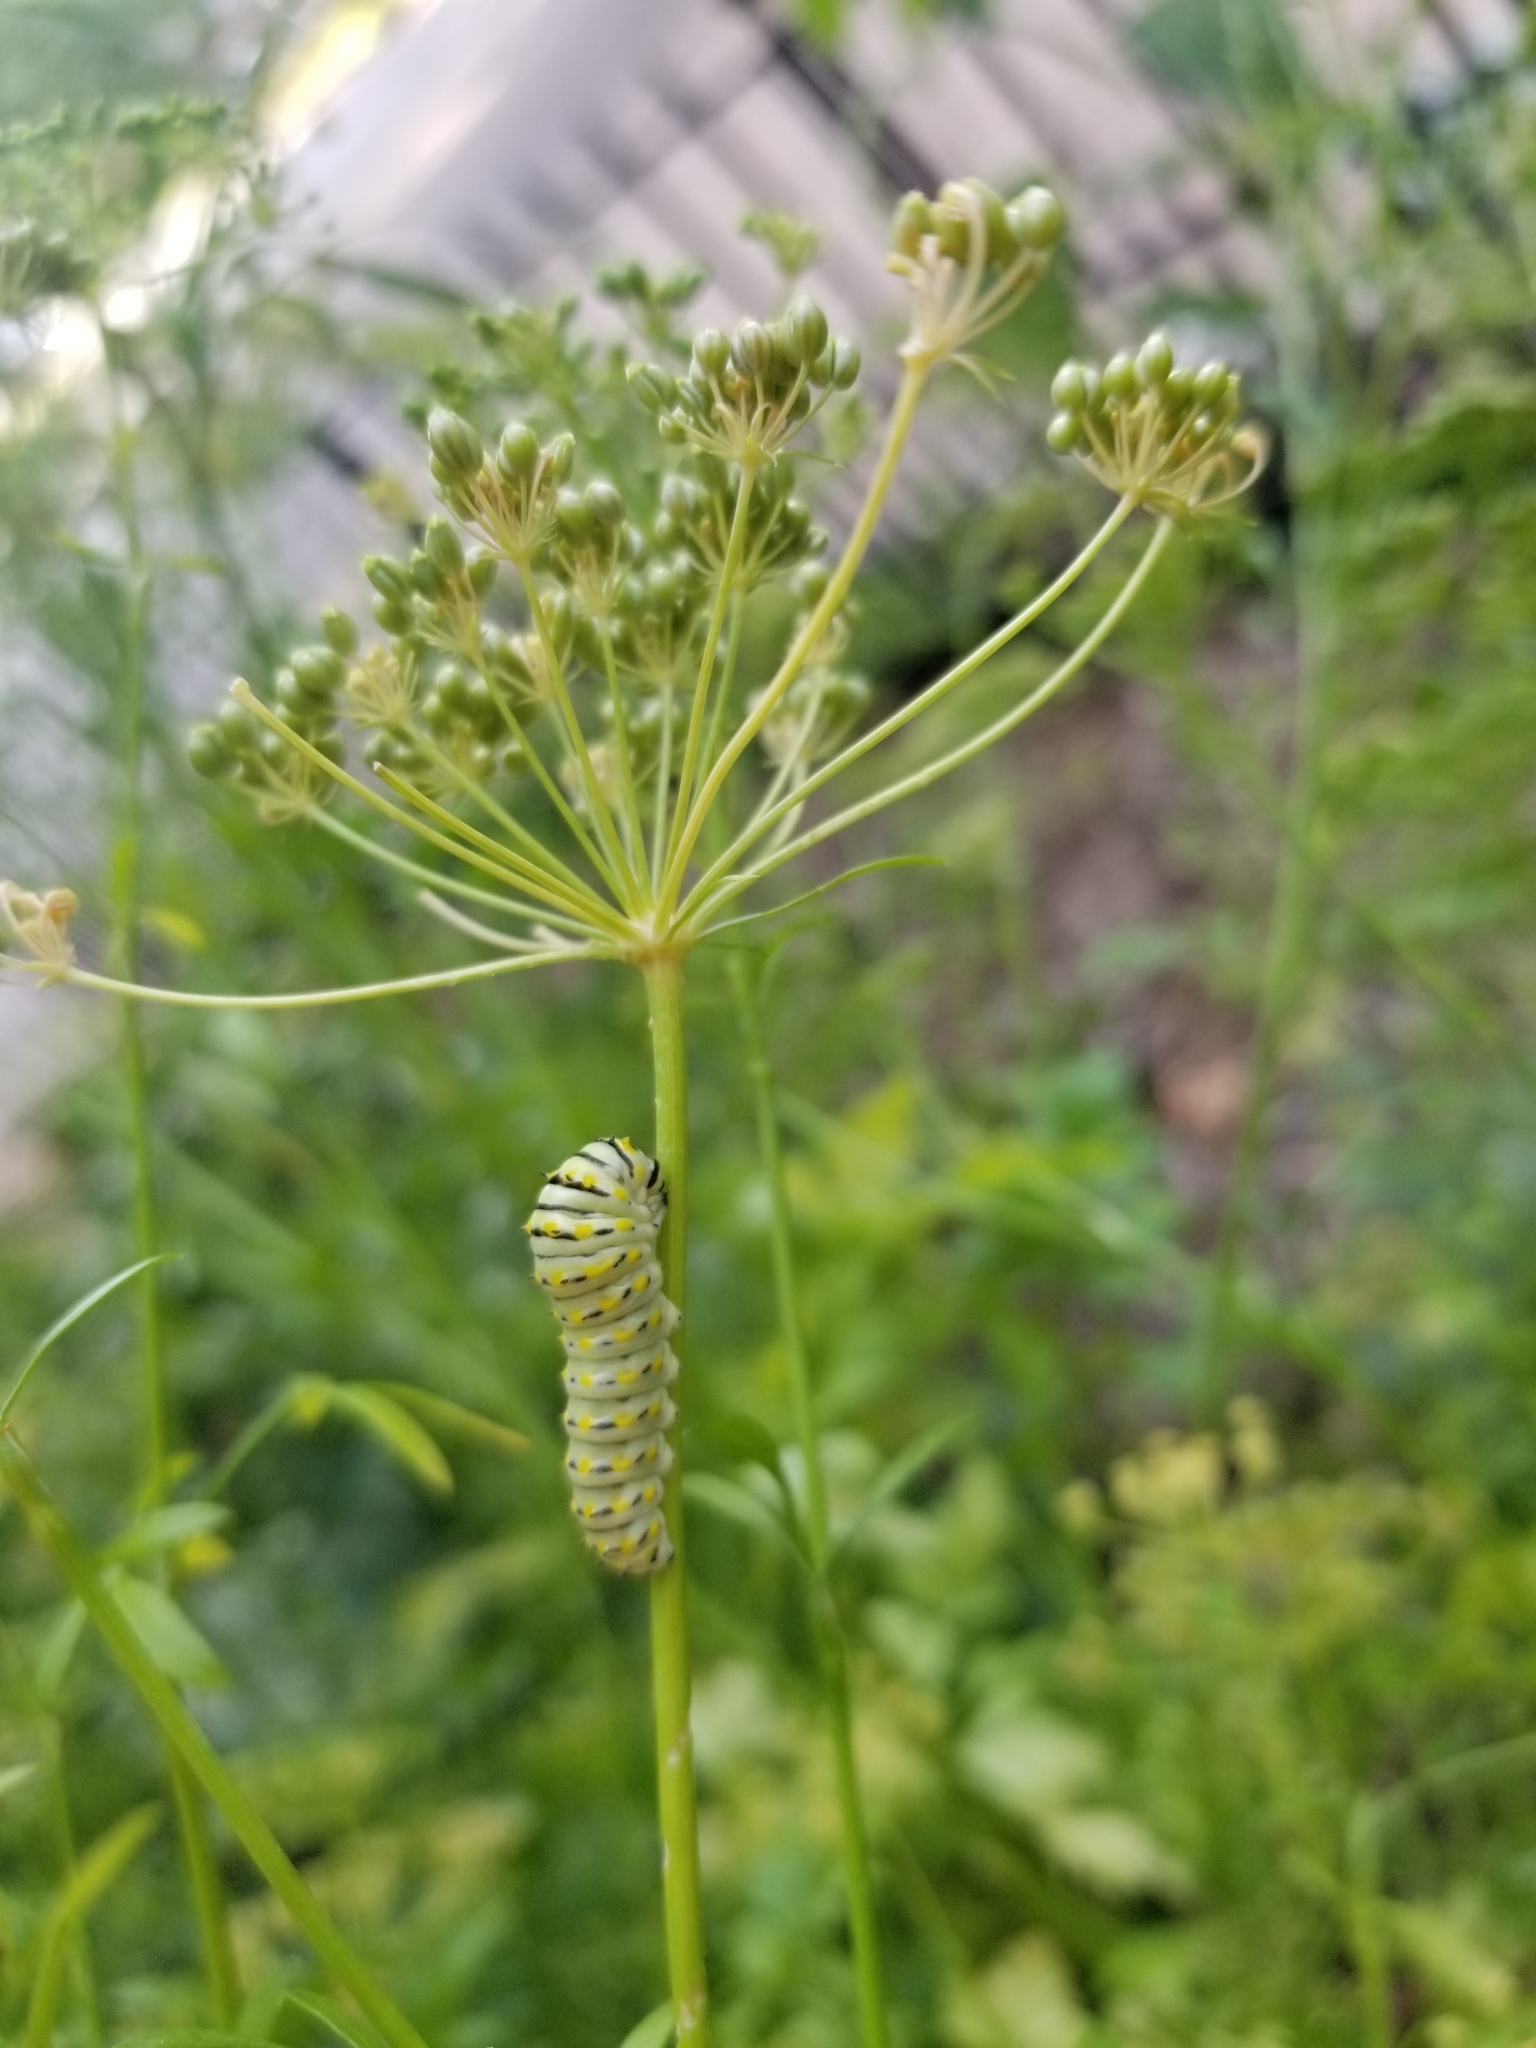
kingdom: Animalia
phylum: Arthropoda
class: Insecta
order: Lepidoptera
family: Papilionidae
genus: Papilio
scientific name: Papilio polyxenes
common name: Black swallowtail
